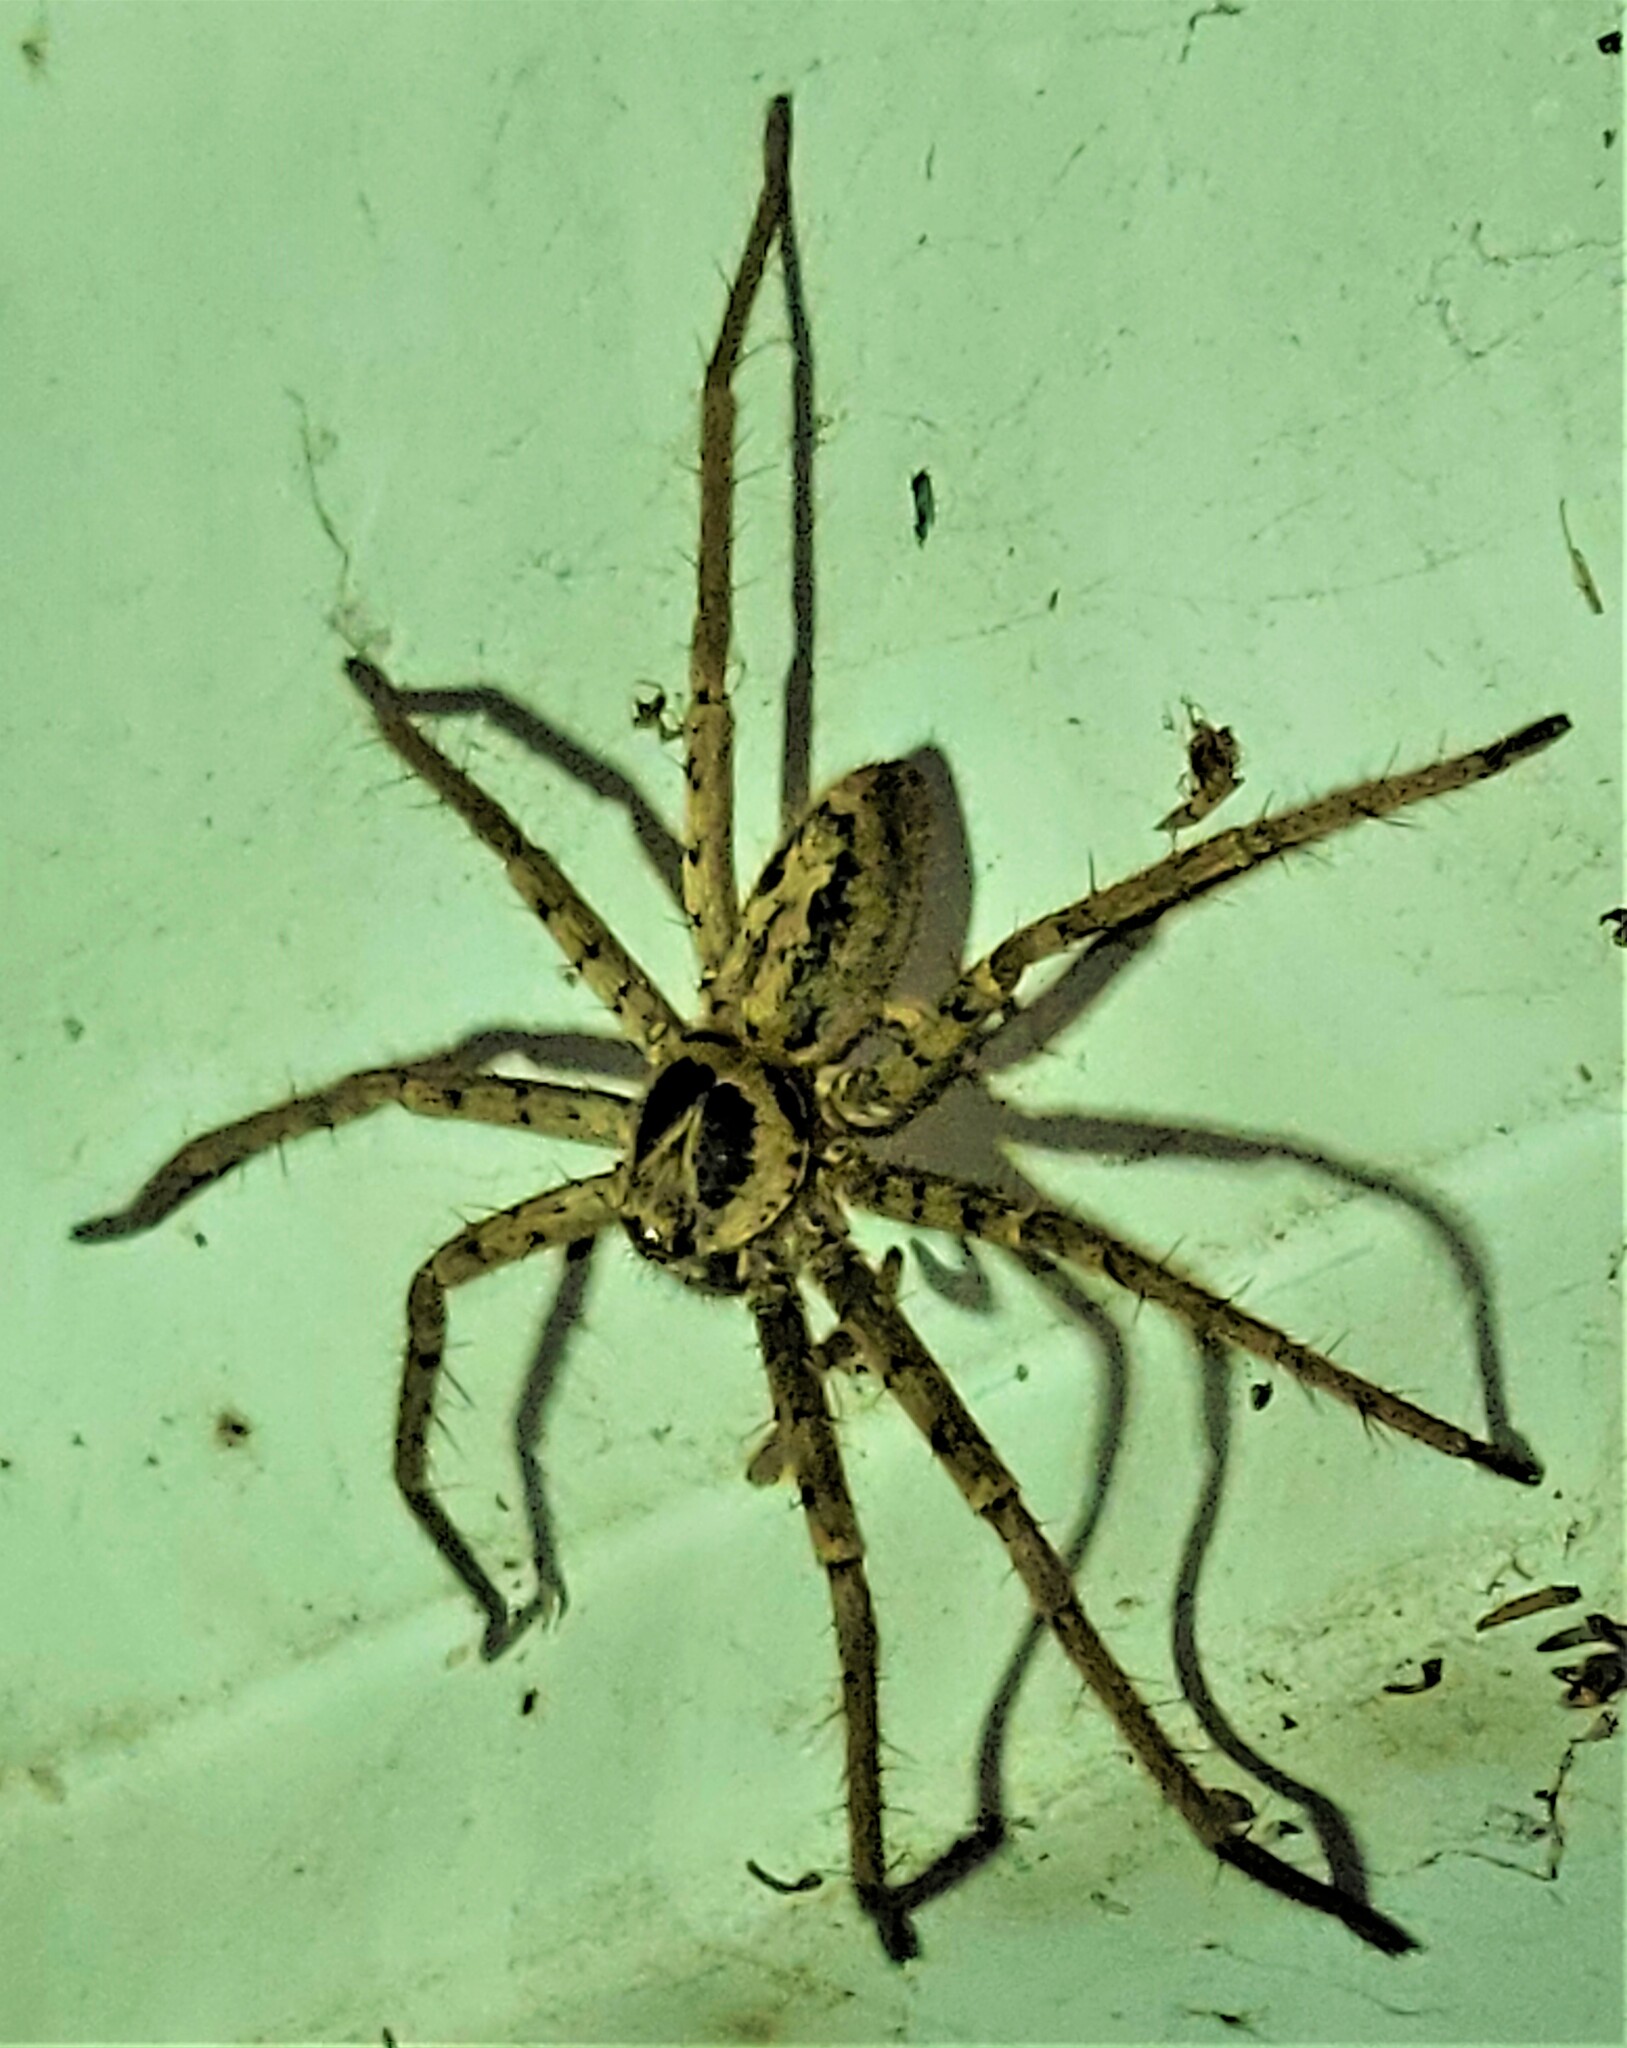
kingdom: Animalia
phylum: Arthropoda
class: Arachnida
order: Araneae
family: Sparassidae
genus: Heteropoda
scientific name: Heteropoda venatoria
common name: Huntsman spider
